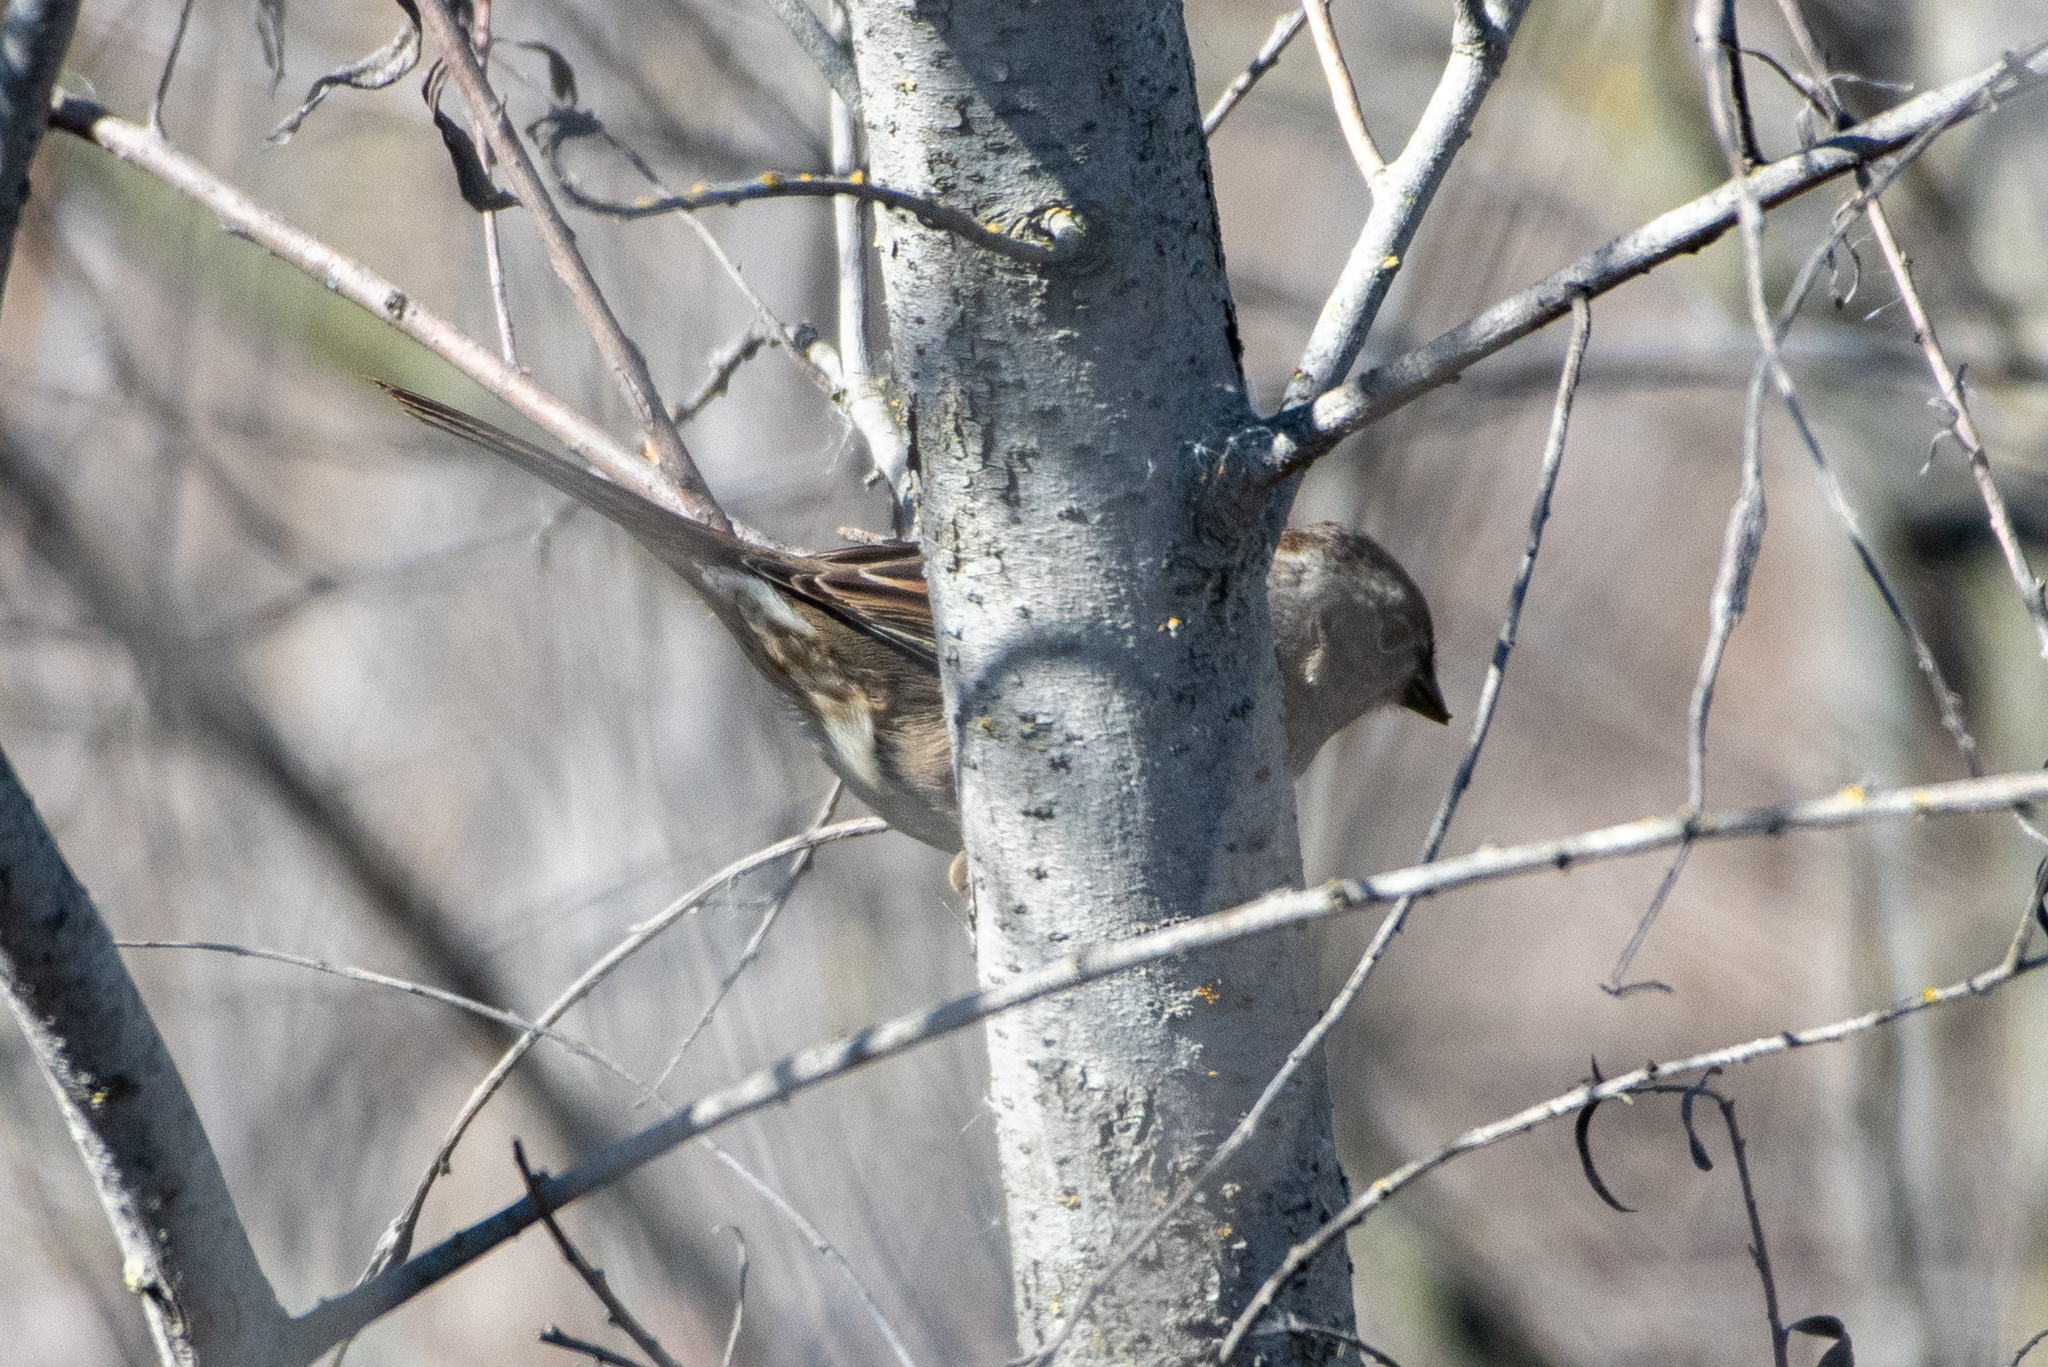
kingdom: Animalia
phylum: Chordata
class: Aves
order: Passeriformes
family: Passerellidae
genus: Zonotrichia
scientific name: Zonotrichia atricapilla
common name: Golden-crowned sparrow
